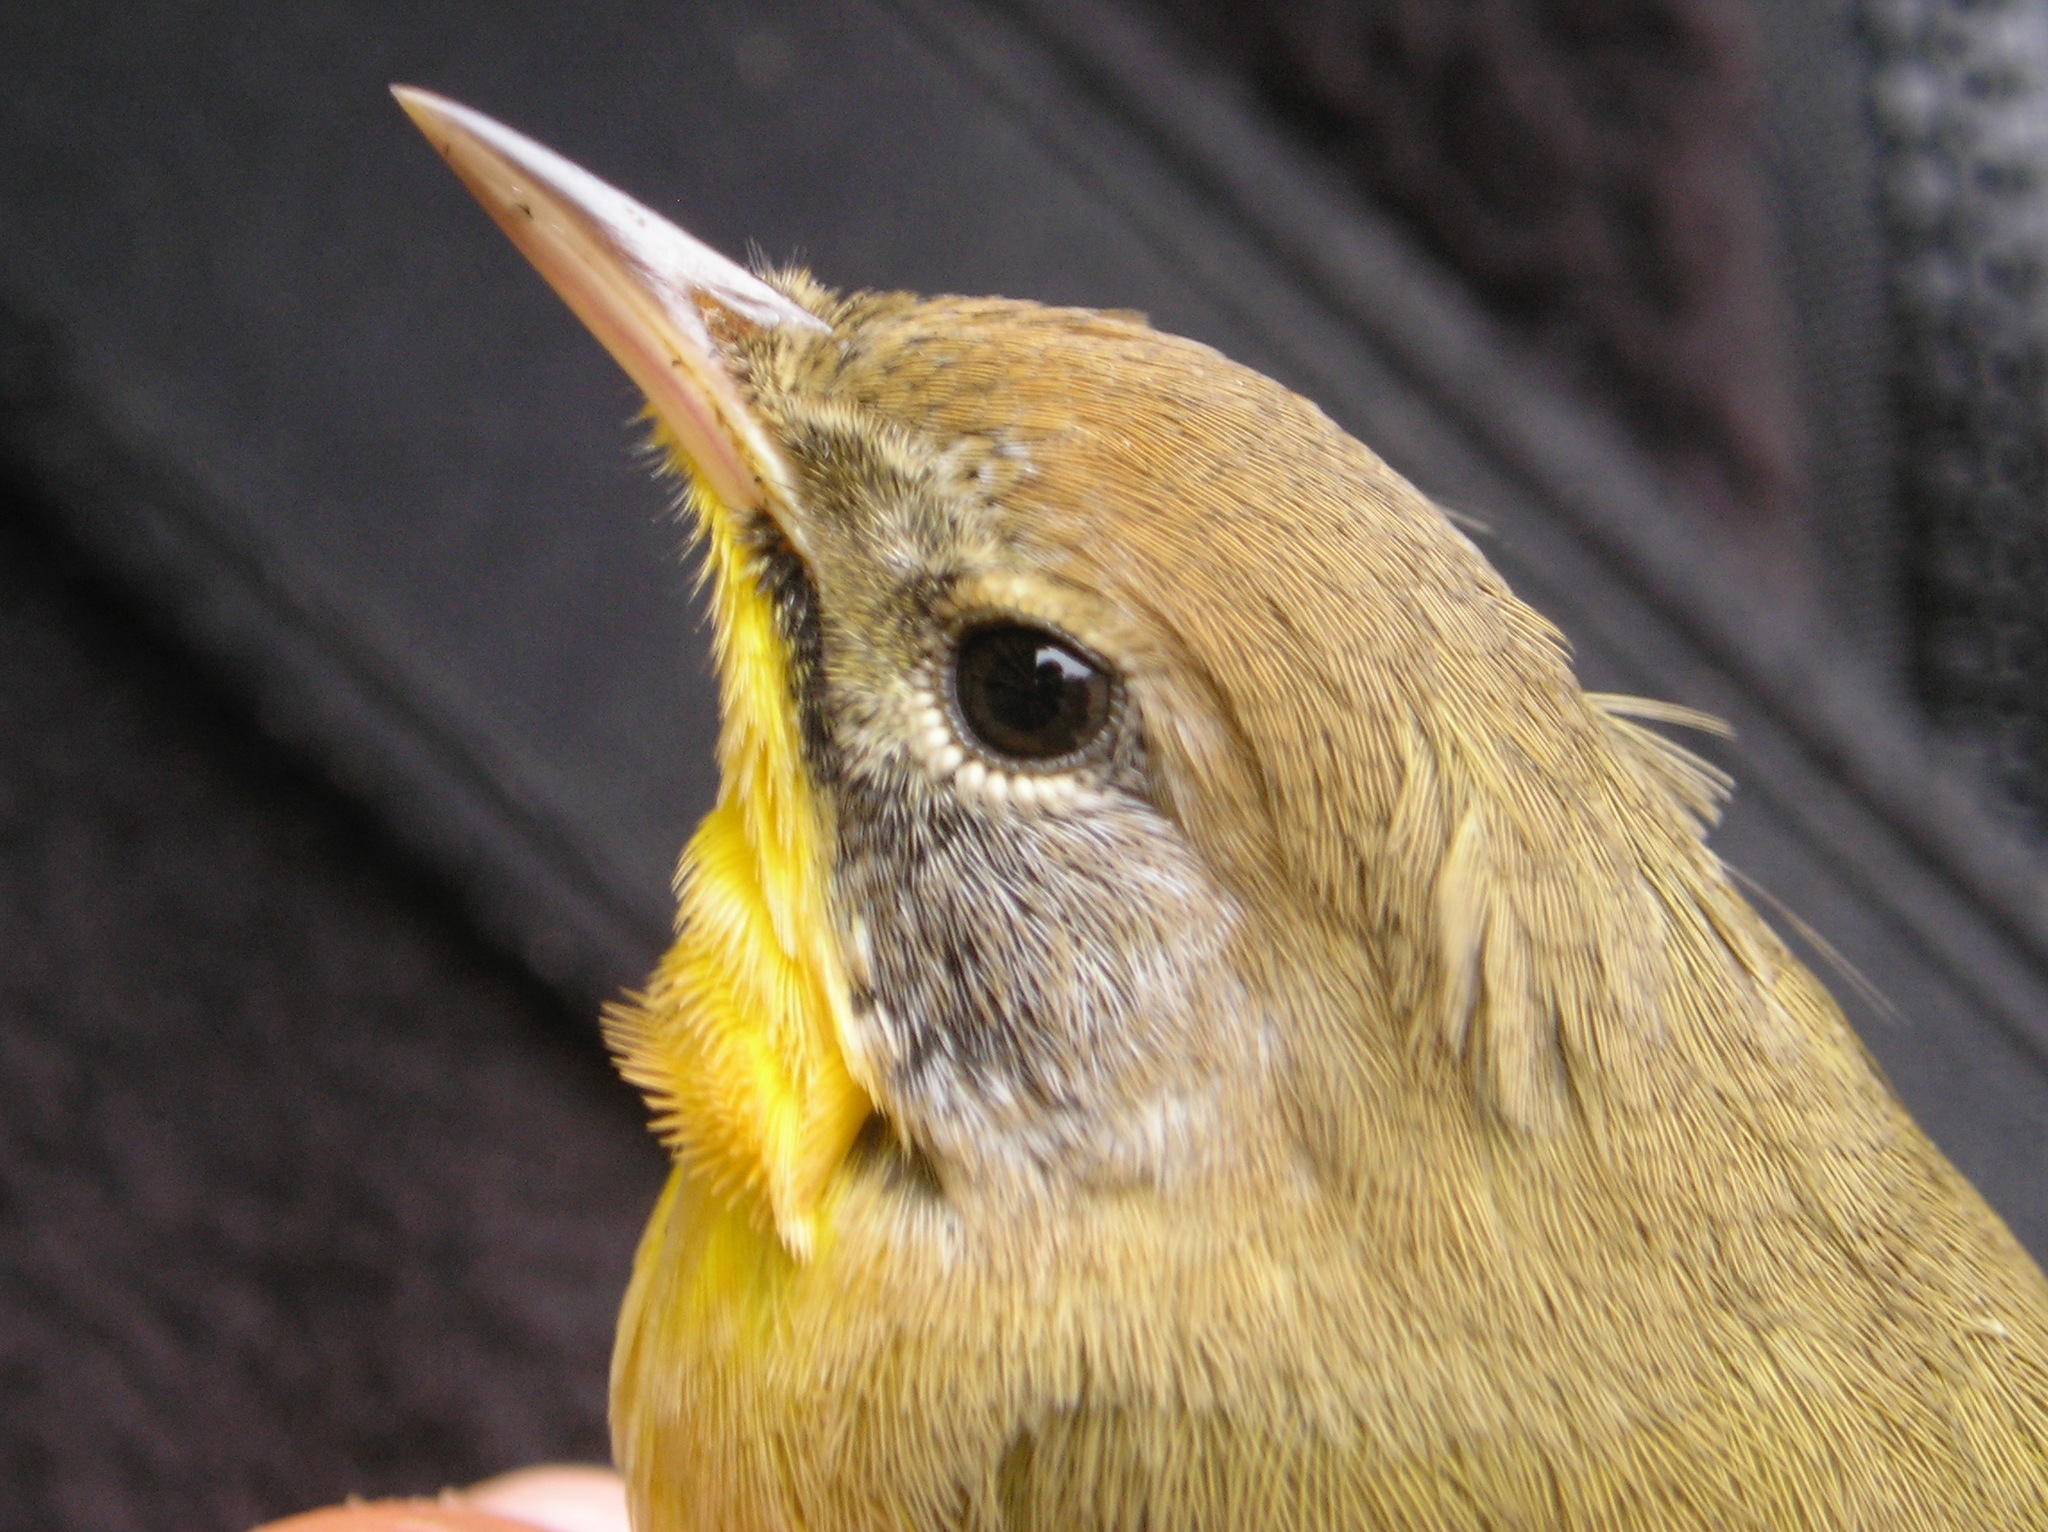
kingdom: Animalia
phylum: Chordata
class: Aves
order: Passeriformes
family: Parulidae
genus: Geothlypis
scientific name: Geothlypis trichas
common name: Common yellowthroat
